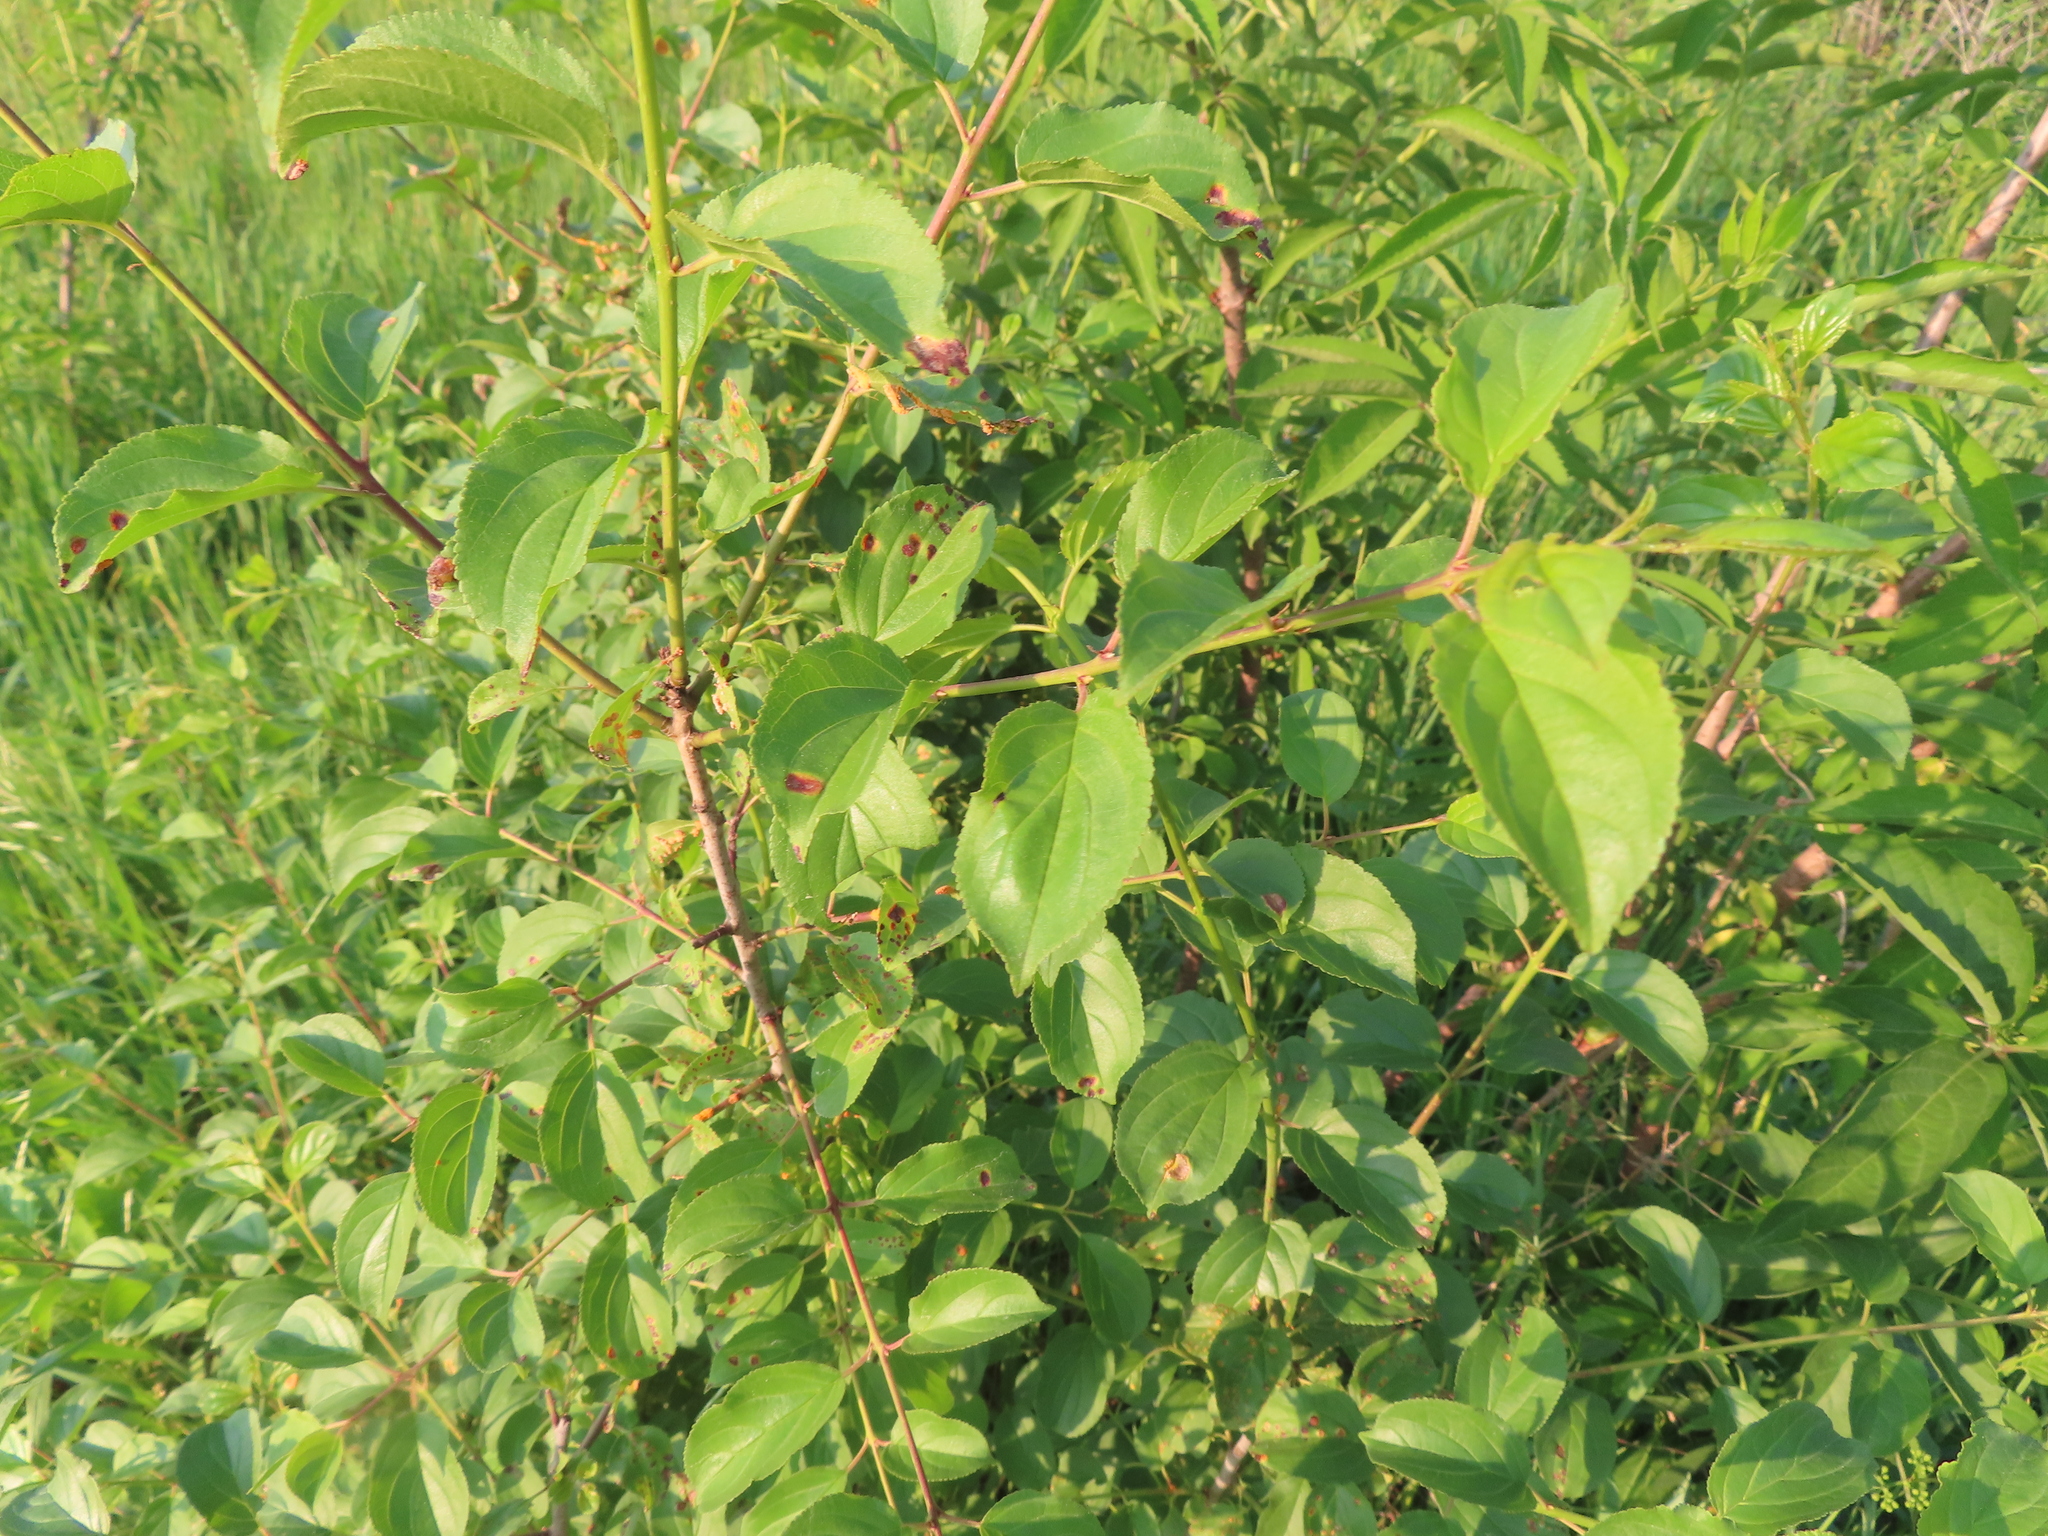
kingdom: Plantae
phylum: Tracheophyta
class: Magnoliopsida
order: Rosales
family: Rhamnaceae
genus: Rhamnus
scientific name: Rhamnus cathartica
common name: Common buckthorn
